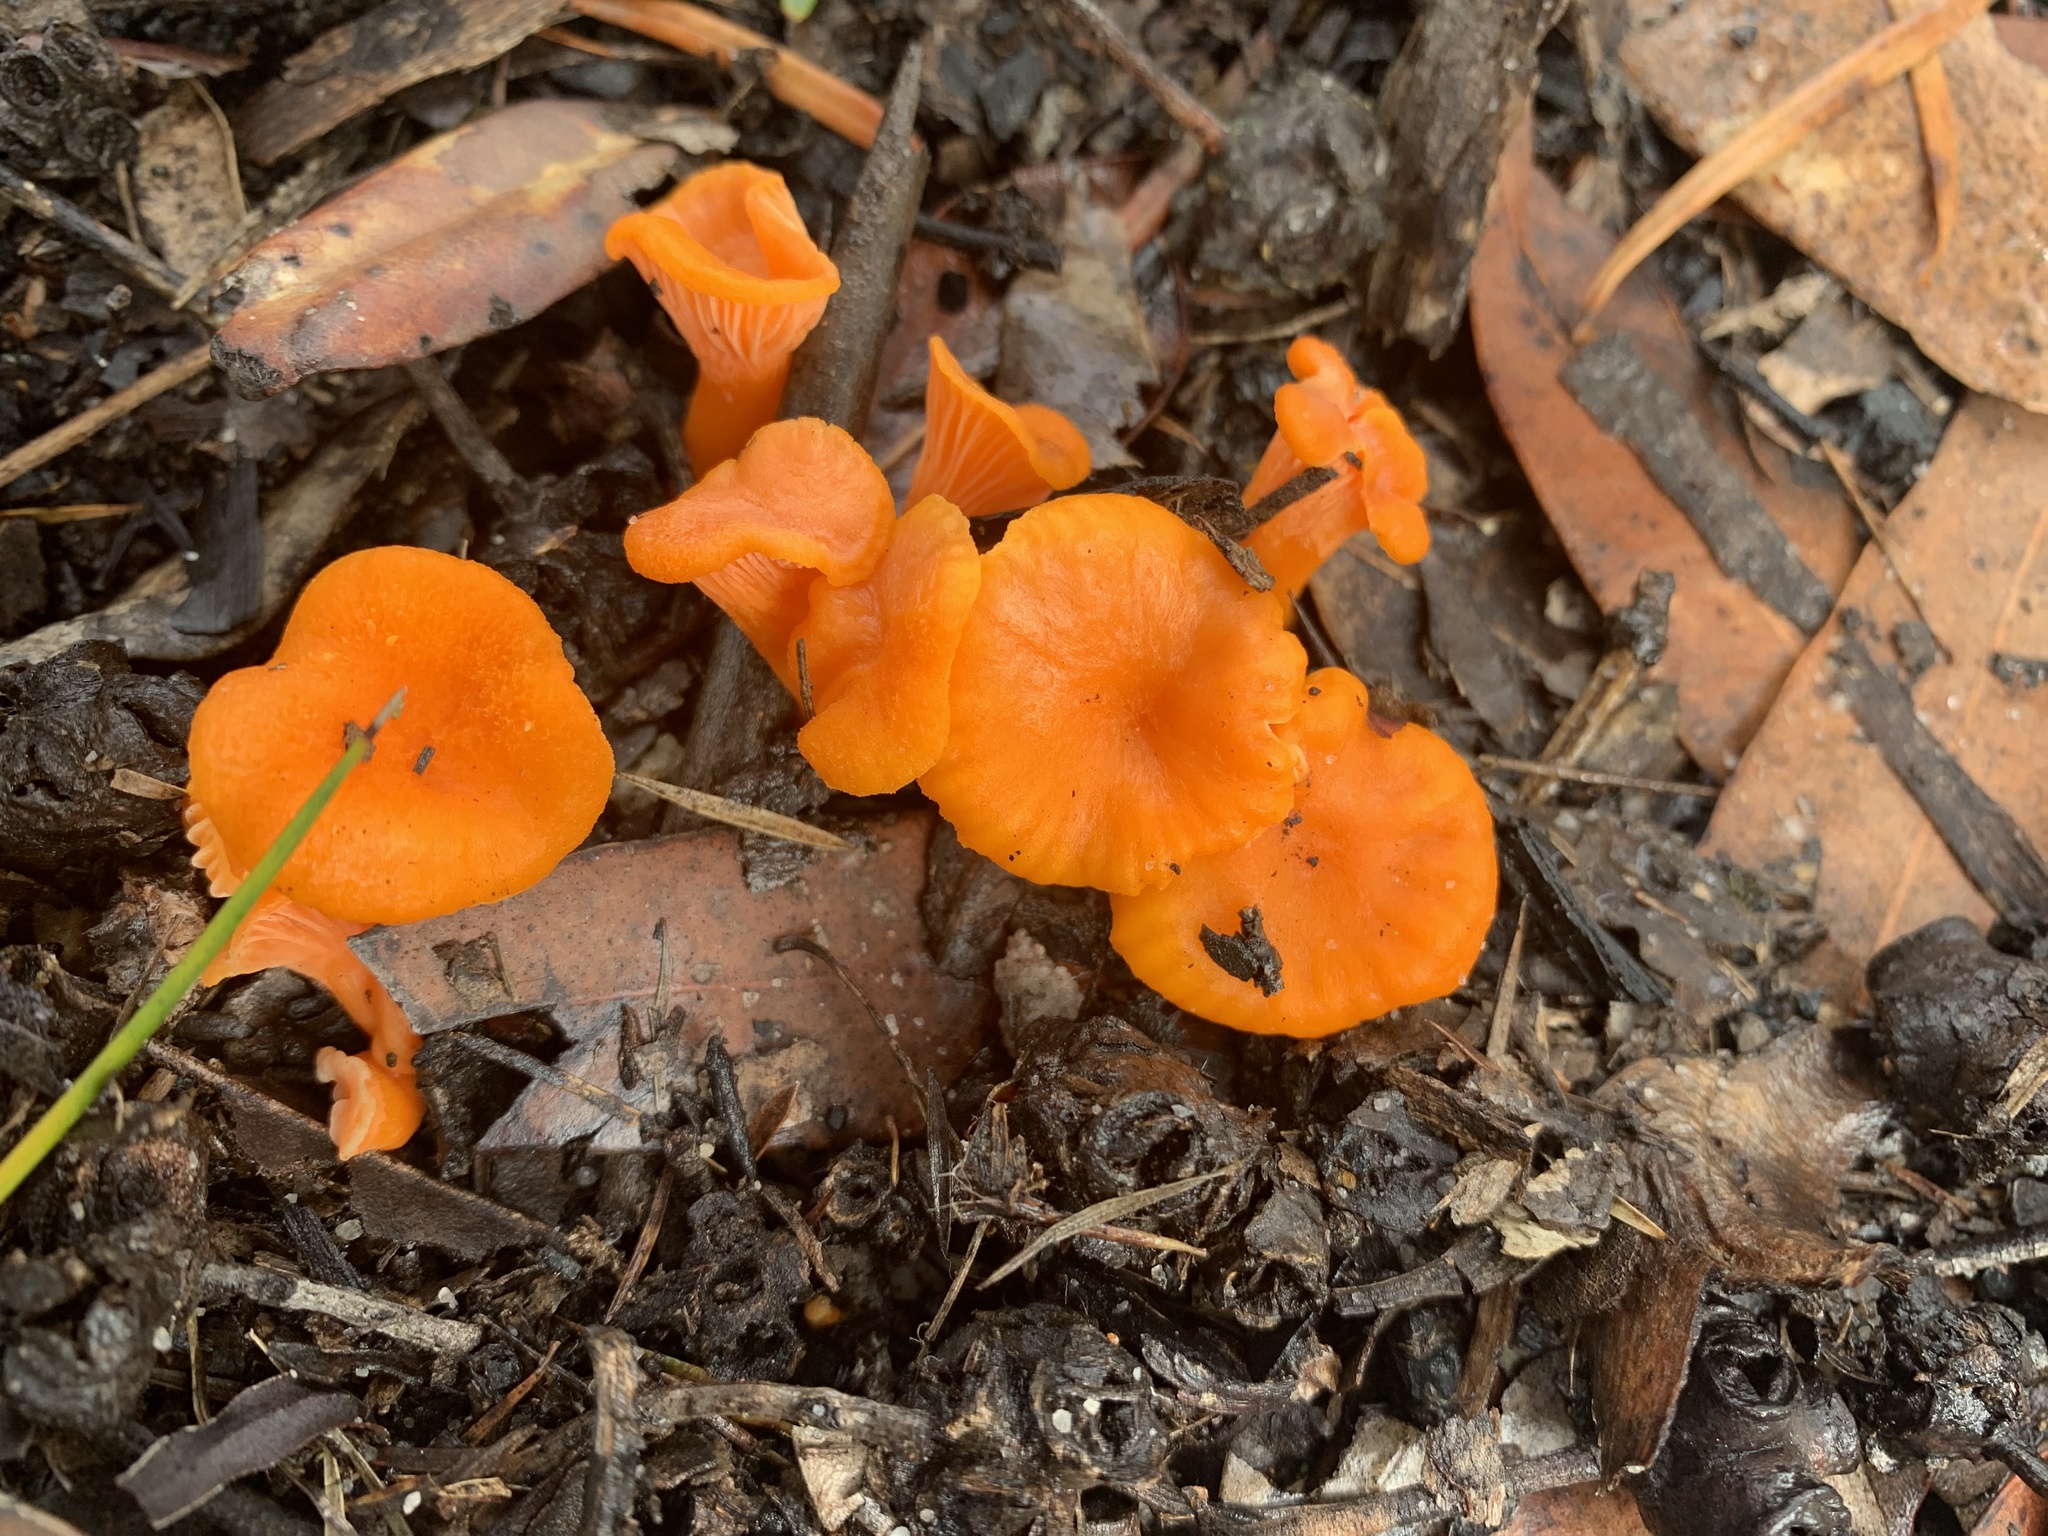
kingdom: Fungi
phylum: Basidiomycota
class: Agaricomycetes
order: Cantharellales
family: Hydnaceae
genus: Cantharellus
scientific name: Cantharellus
